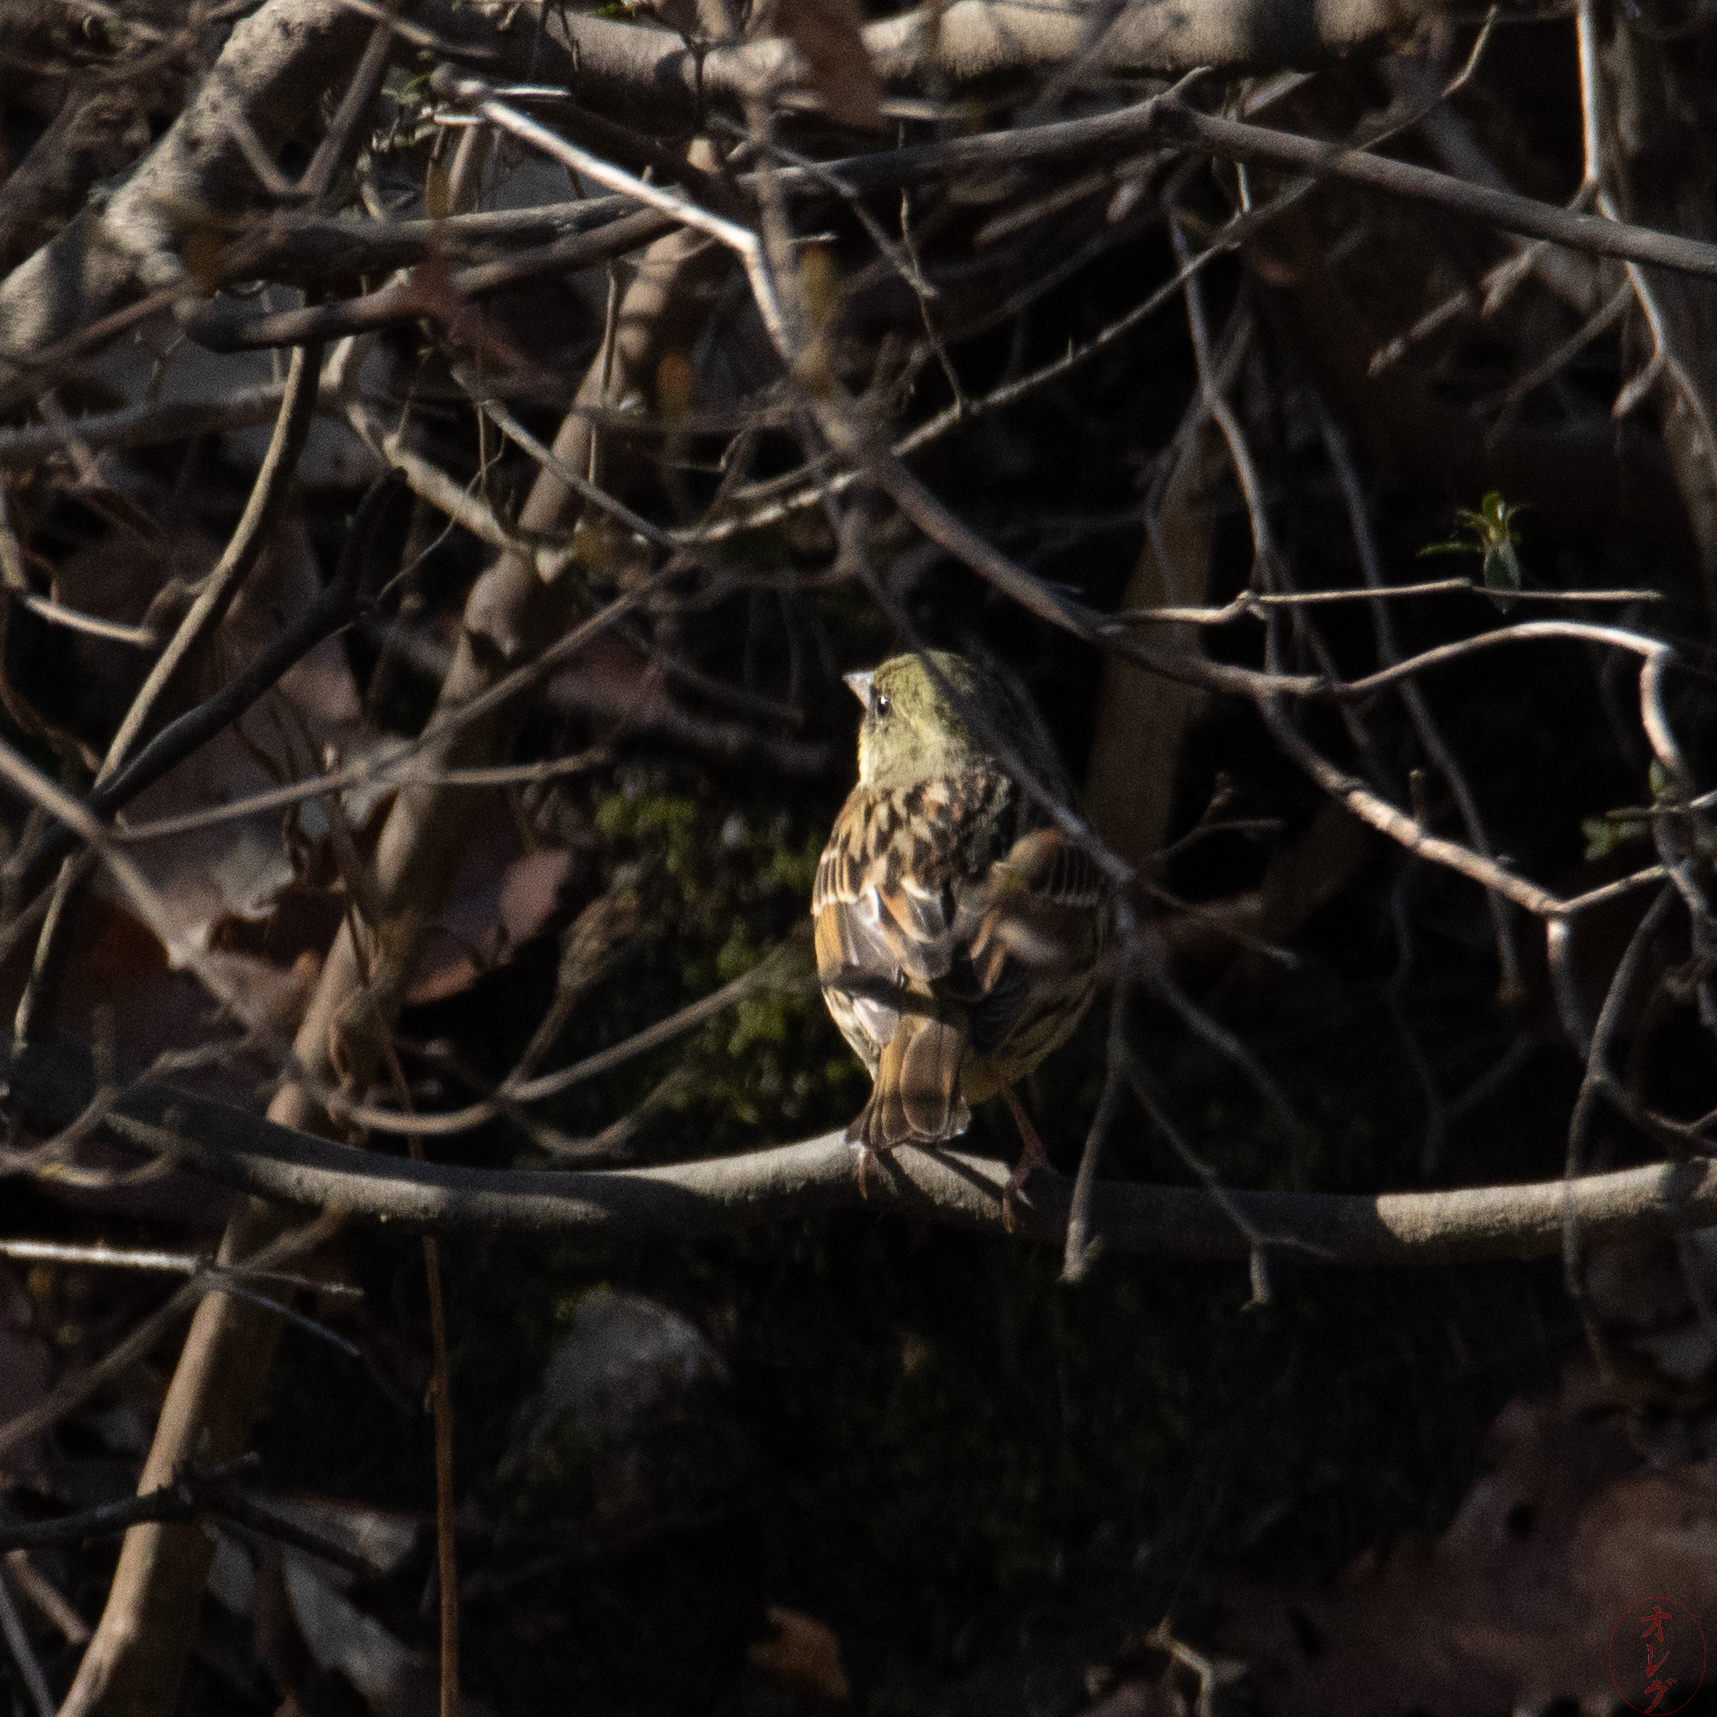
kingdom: Animalia
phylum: Chordata
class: Aves
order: Passeriformes
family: Emberizidae
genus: Emberiza
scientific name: Emberiza personata
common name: Masked bunting
